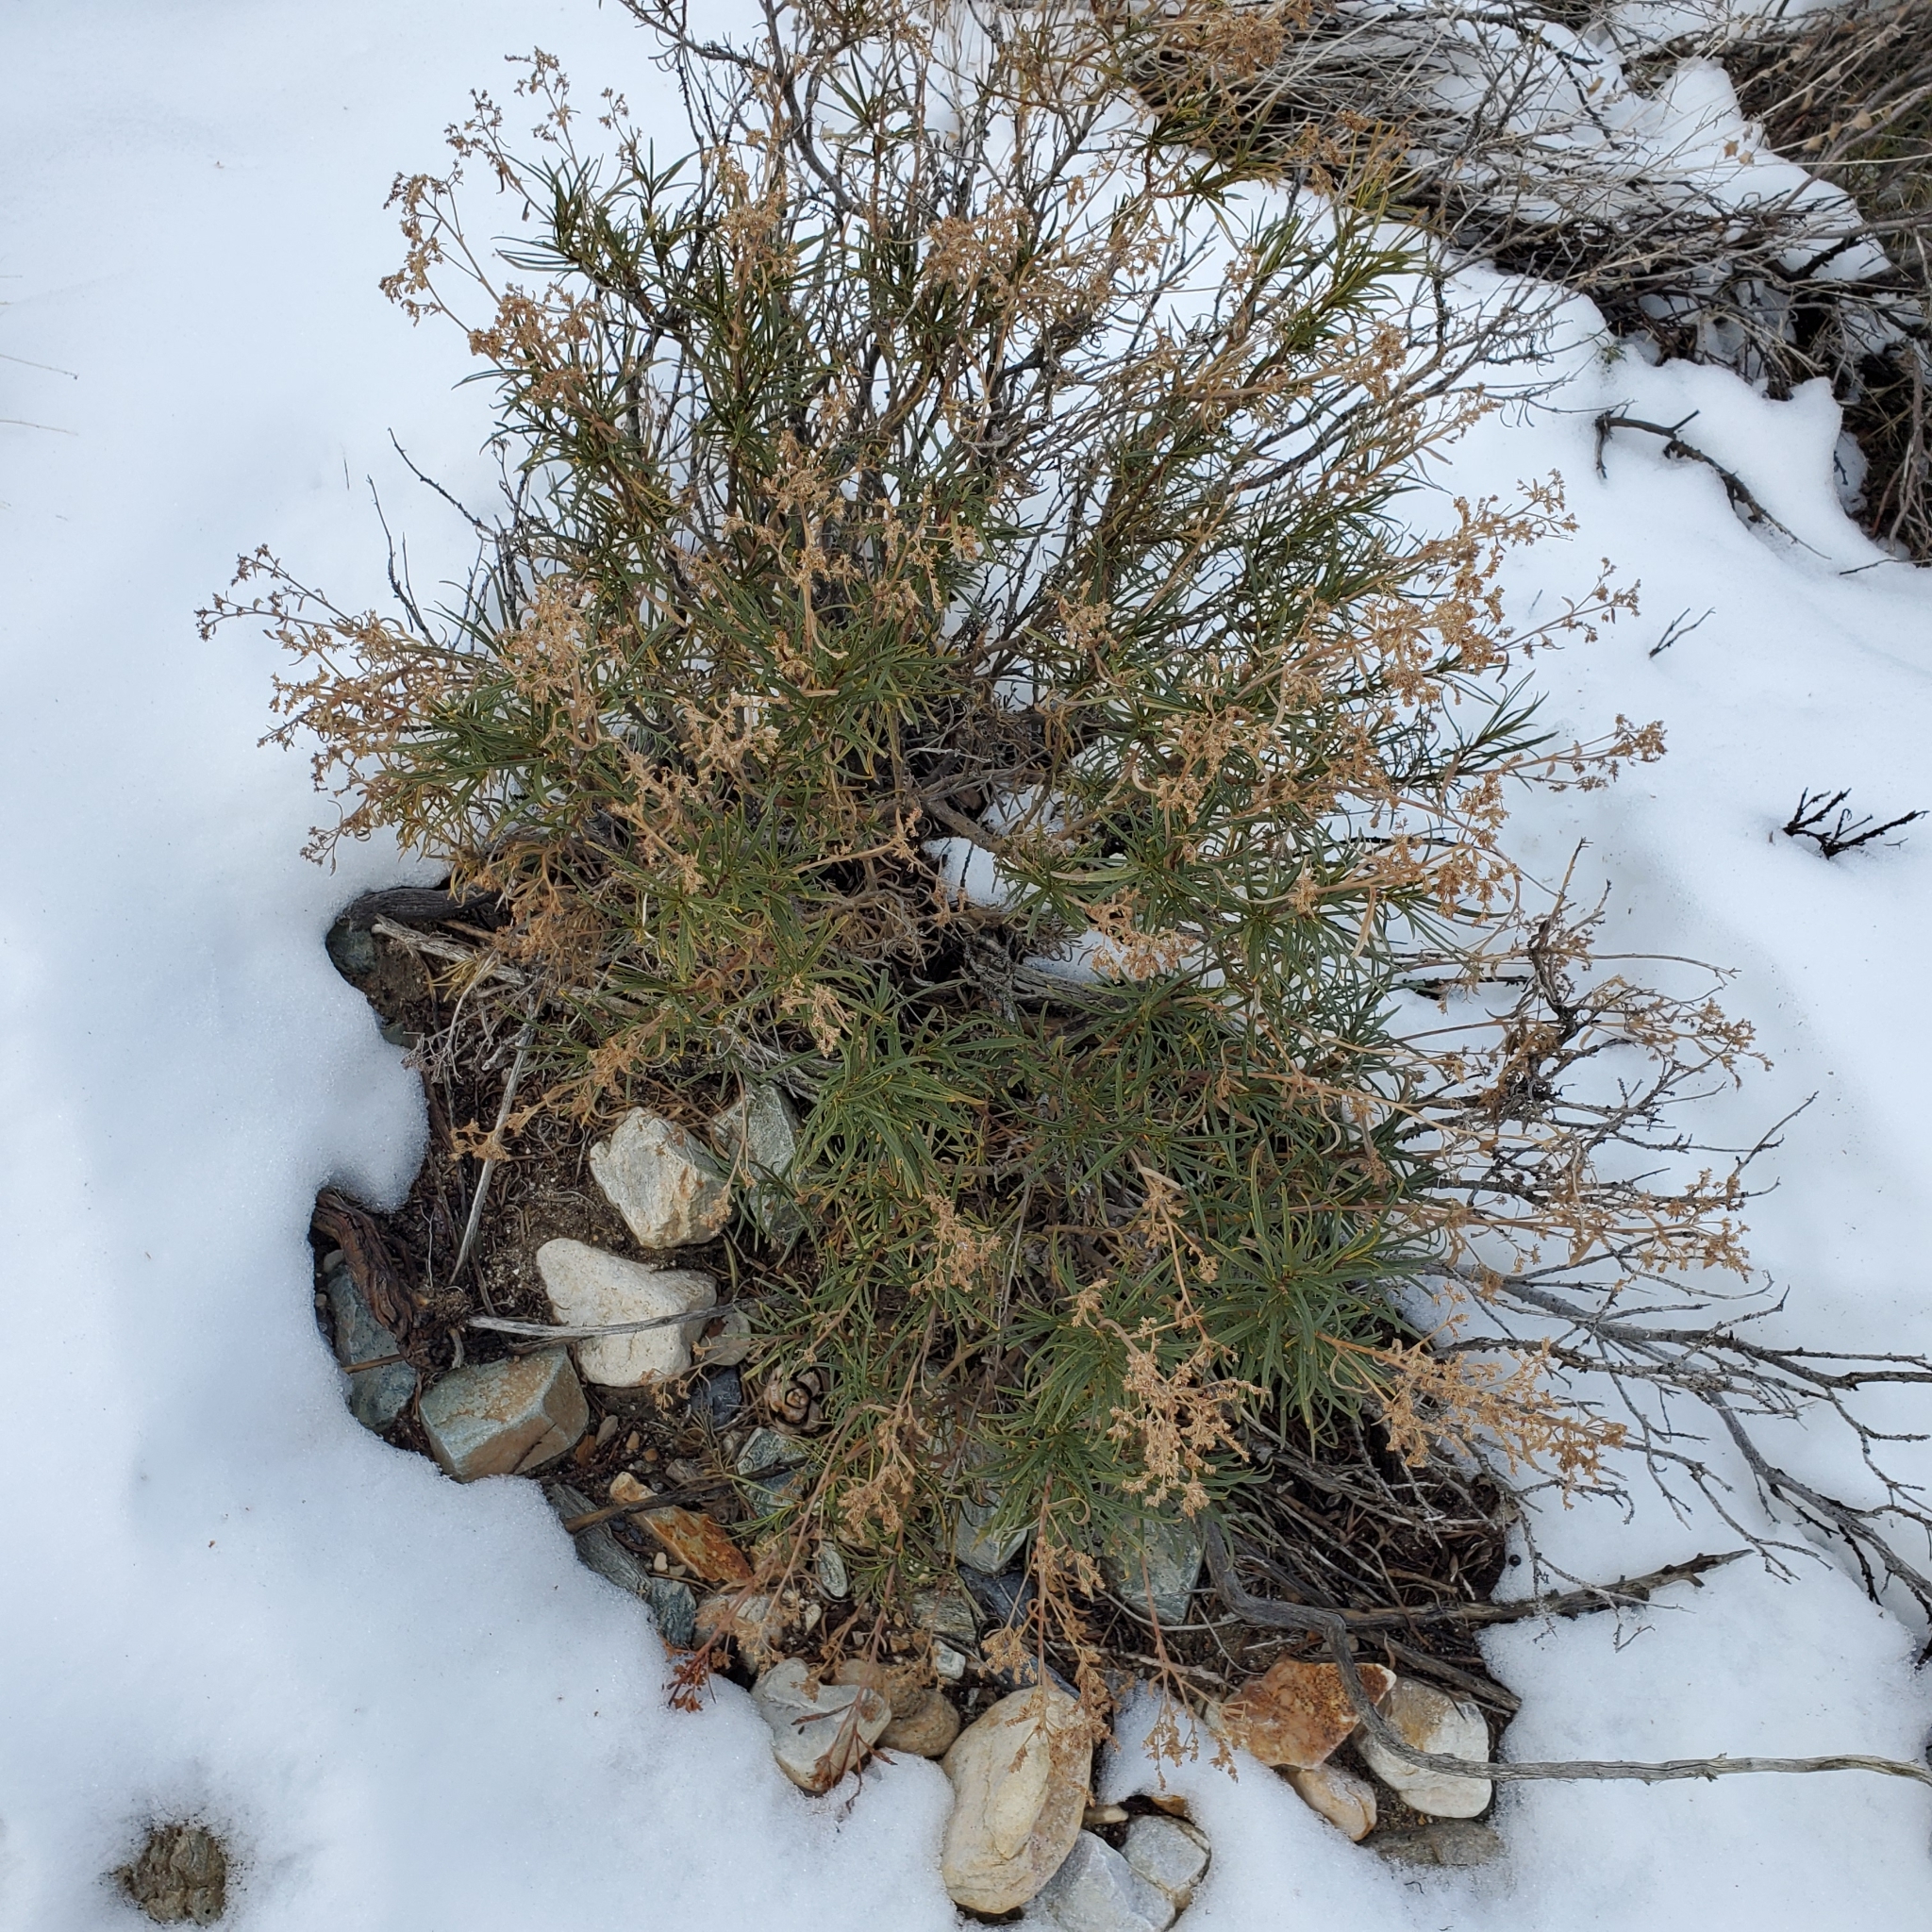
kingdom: Plantae
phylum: Tracheophyta
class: Magnoliopsida
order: Boraginales
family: Namaceae
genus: Eriodictyon
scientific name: Eriodictyon angustifolium
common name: Narrow-leaf yerba santa
